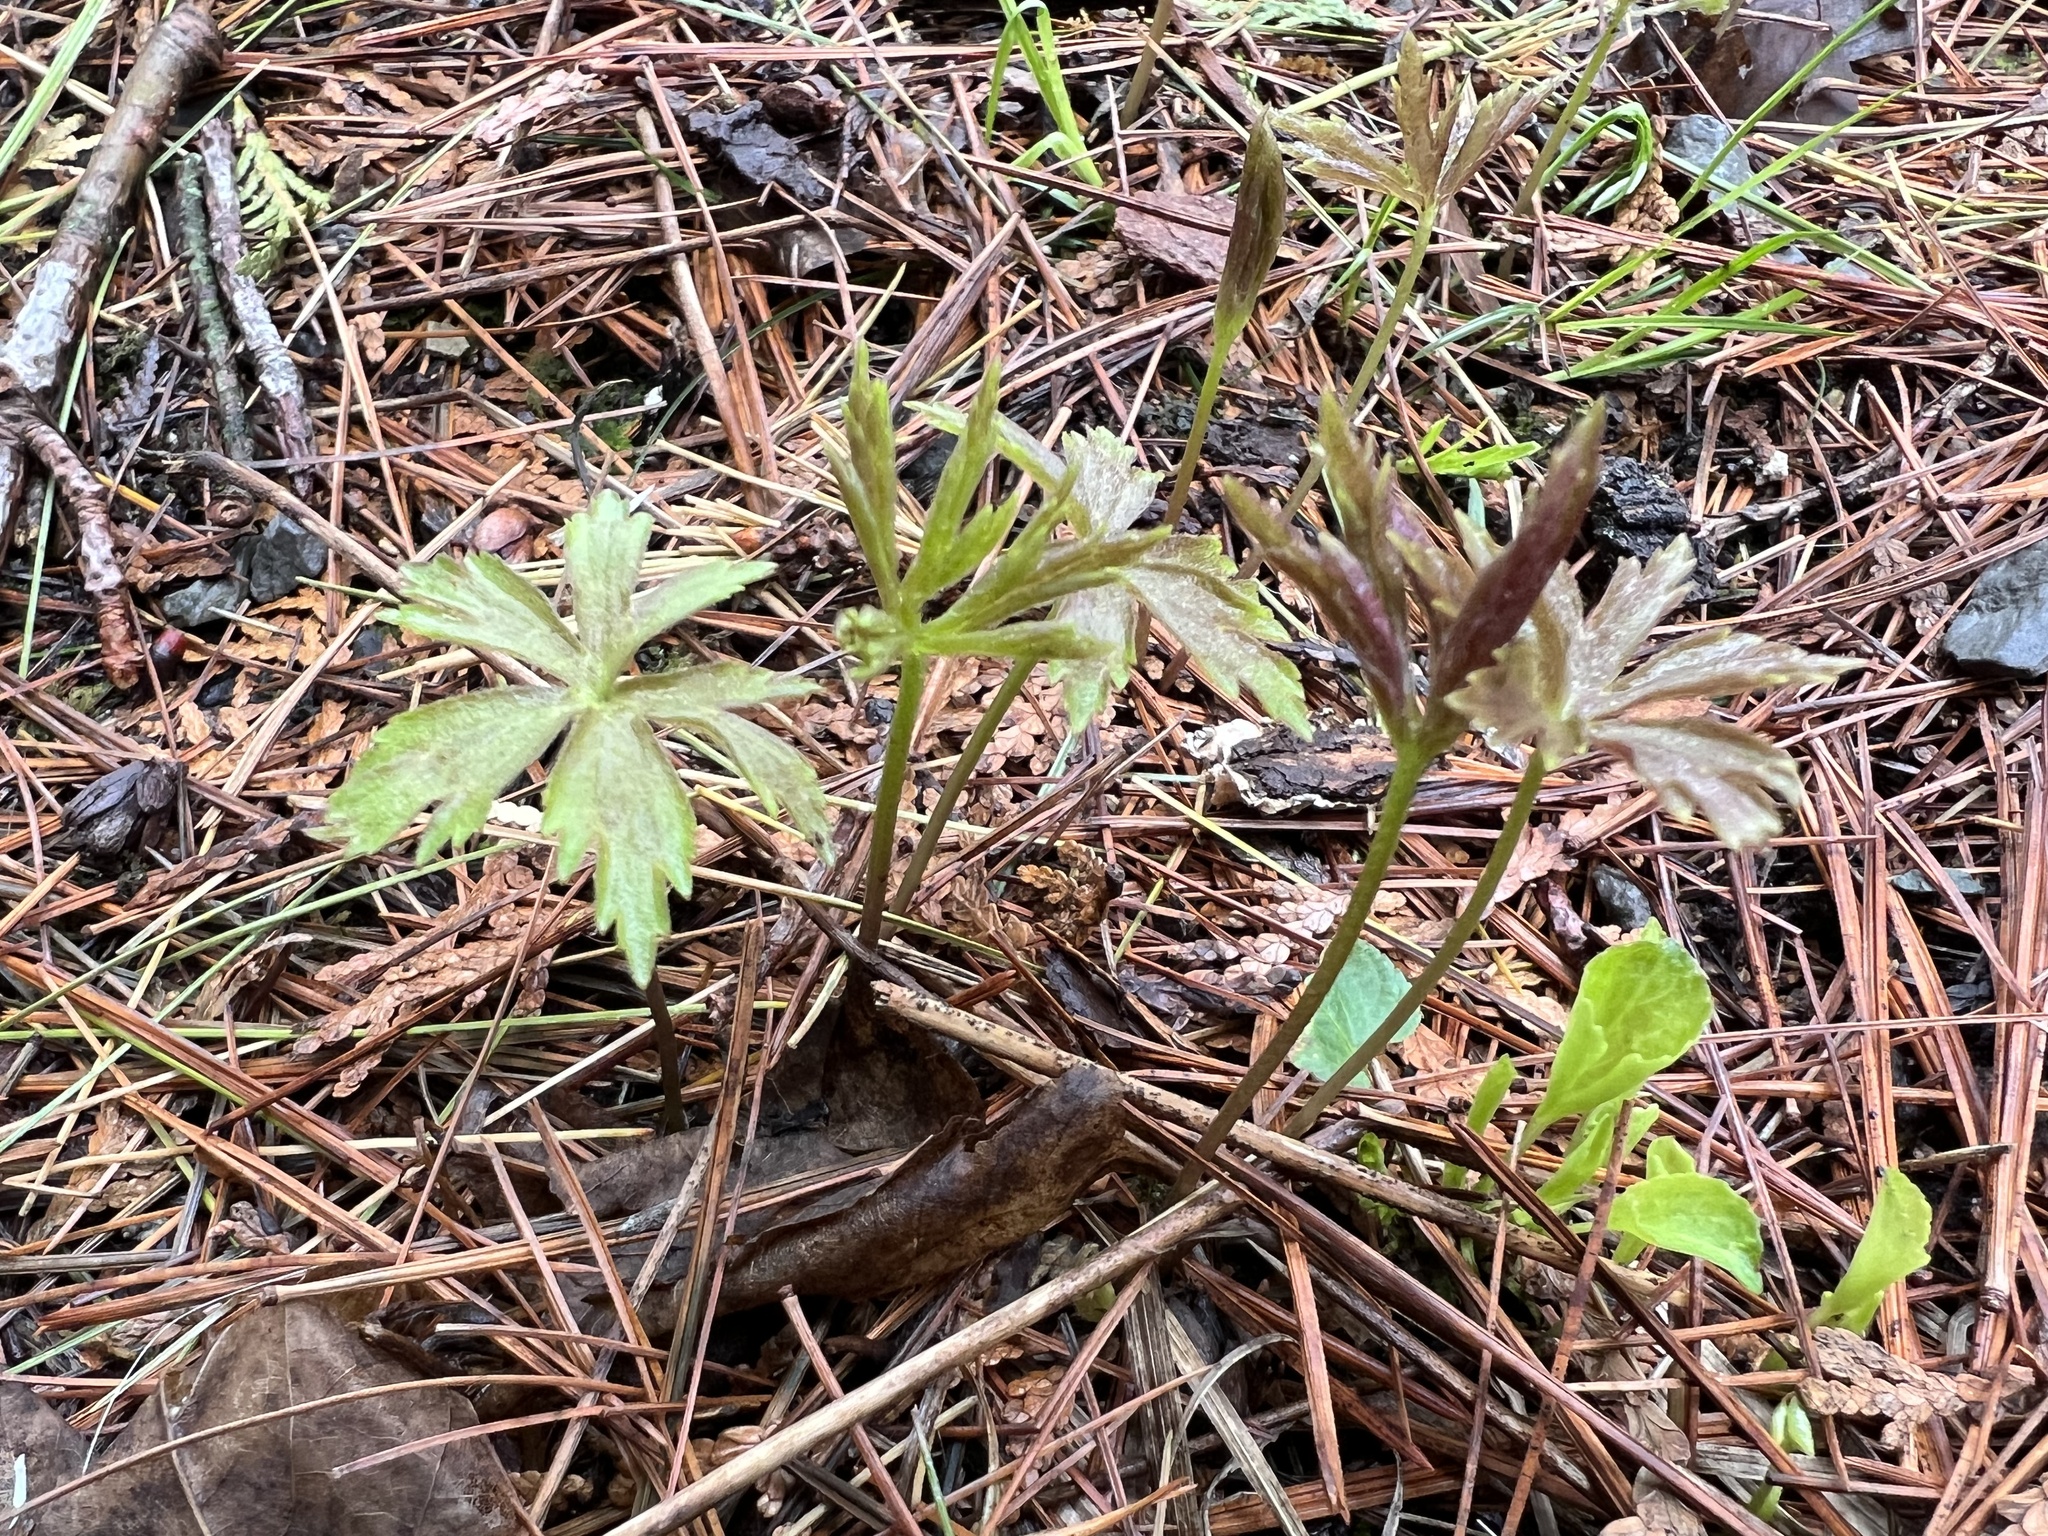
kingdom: Plantae
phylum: Tracheophyta
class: Magnoliopsida
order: Ranunculales
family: Ranunculaceae
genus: Anemonastrum
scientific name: Anemonastrum canadense
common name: Canada anemone
